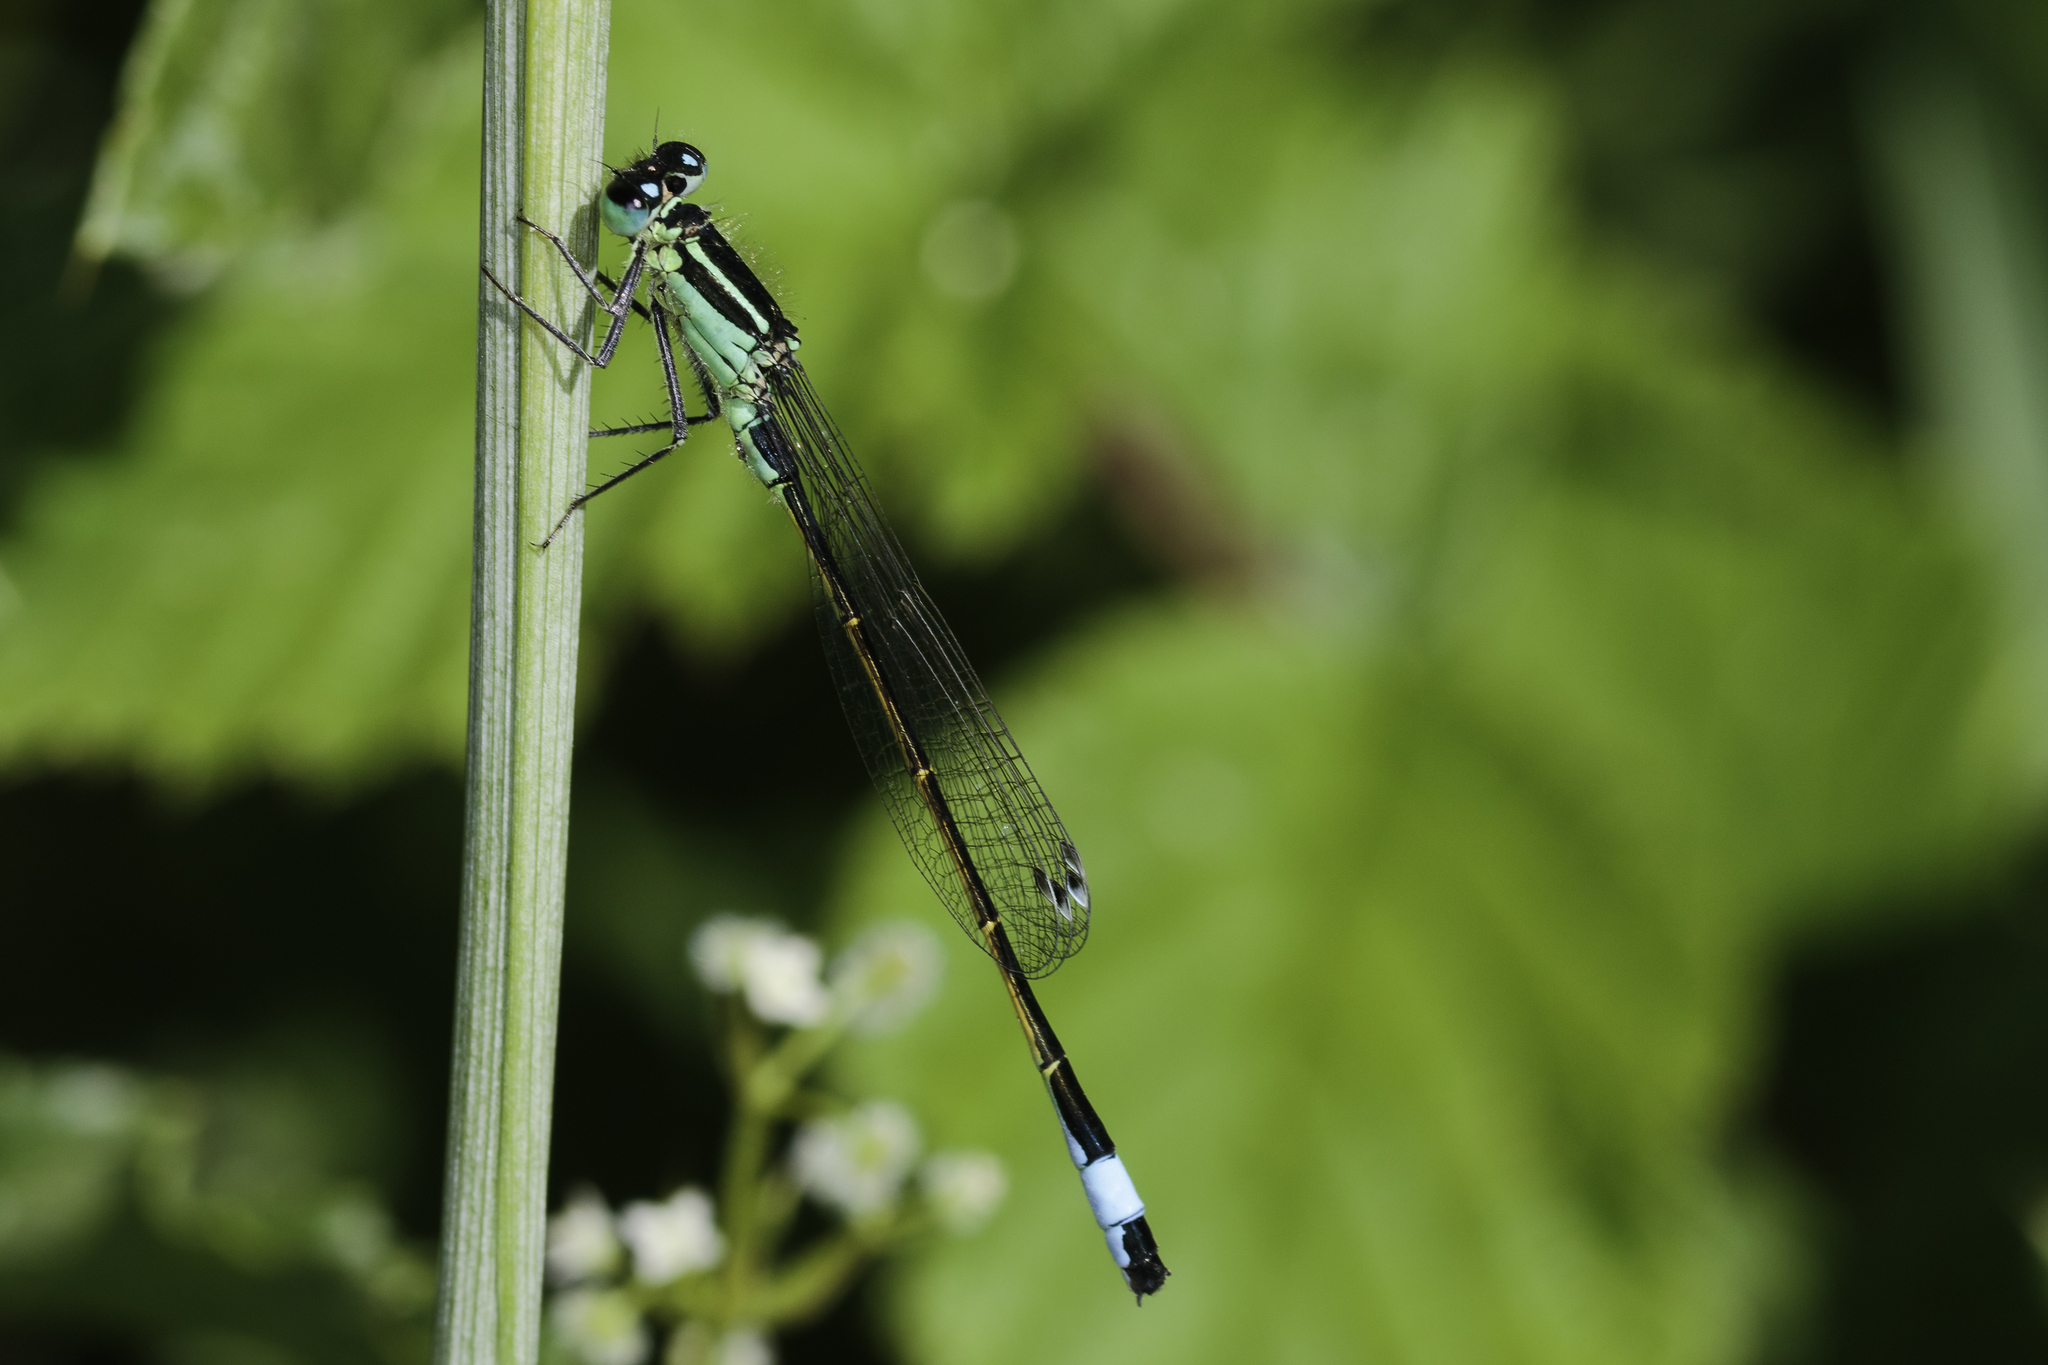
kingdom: Animalia
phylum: Arthropoda
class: Insecta
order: Odonata
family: Coenagrionidae
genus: Ischnura
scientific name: Ischnura elegans
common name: Blue-tailed damselfly
